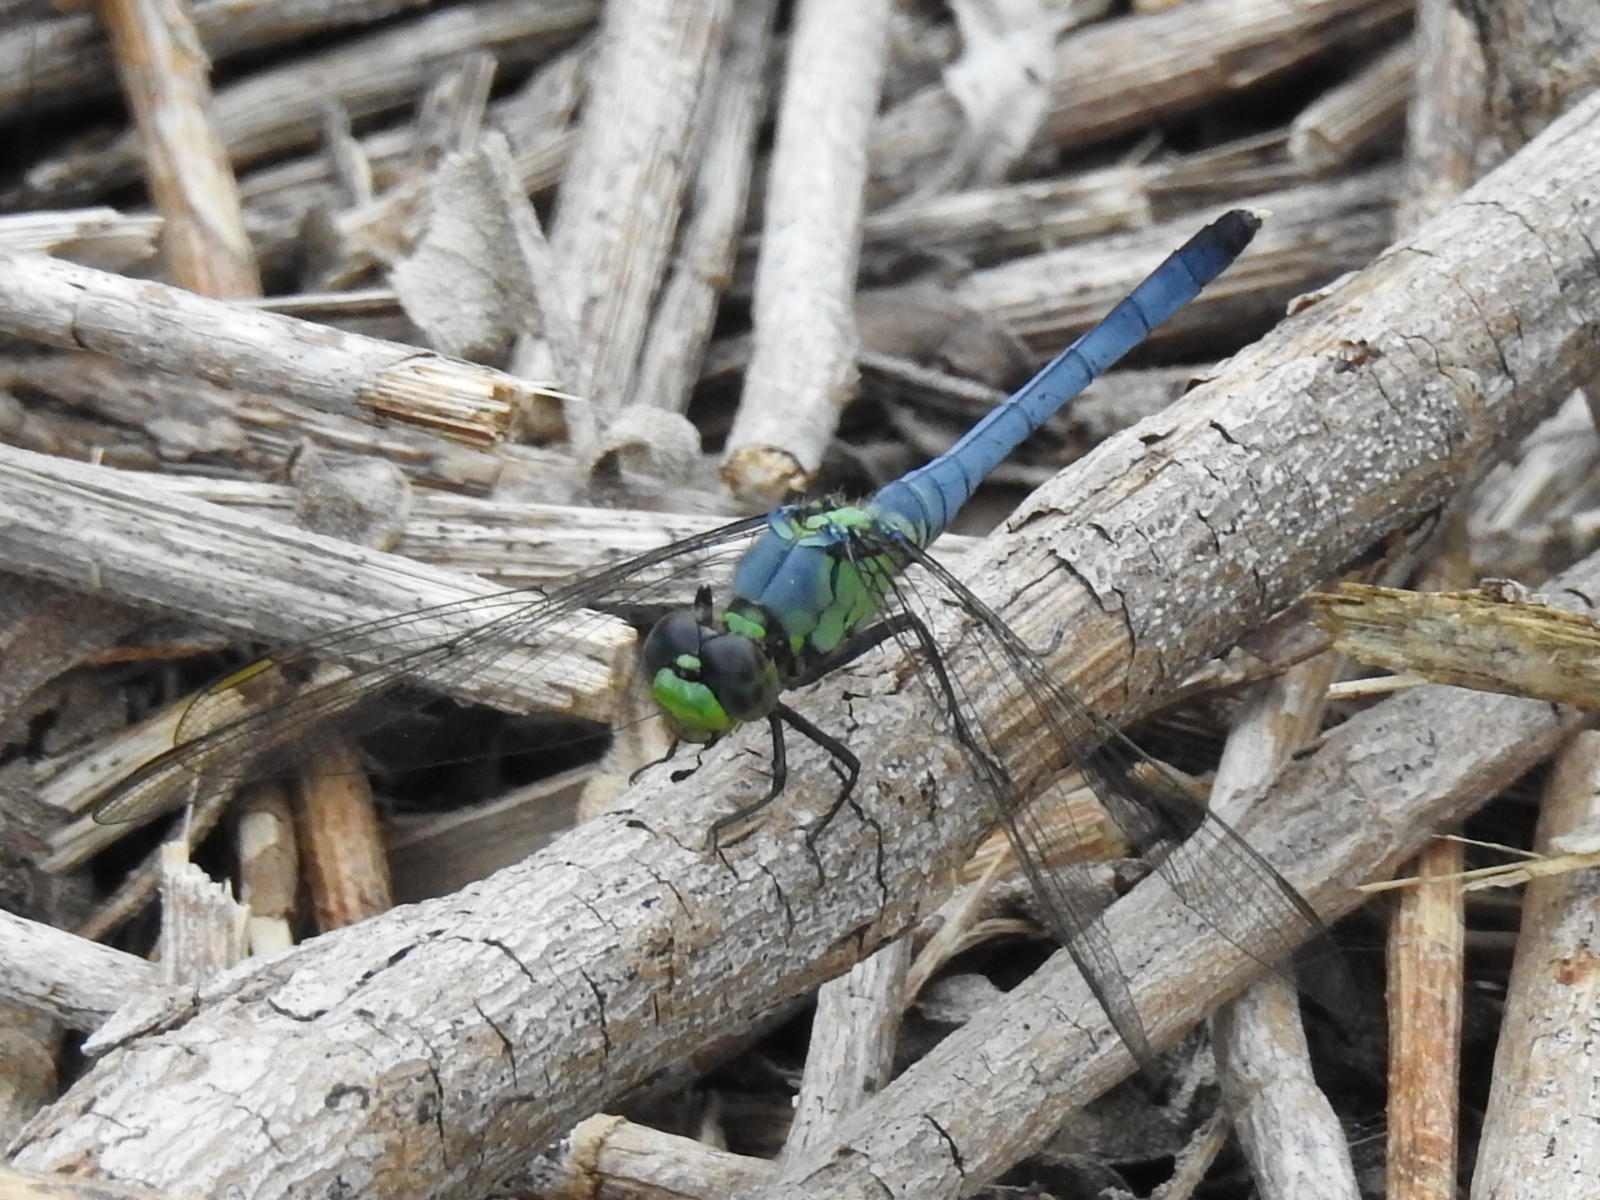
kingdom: Animalia
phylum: Arthropoda
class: Insecta
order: Odonata
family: Libellulidae
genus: Erythemis
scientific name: Erythemis simplicicollis
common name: Eastern pondhawk
